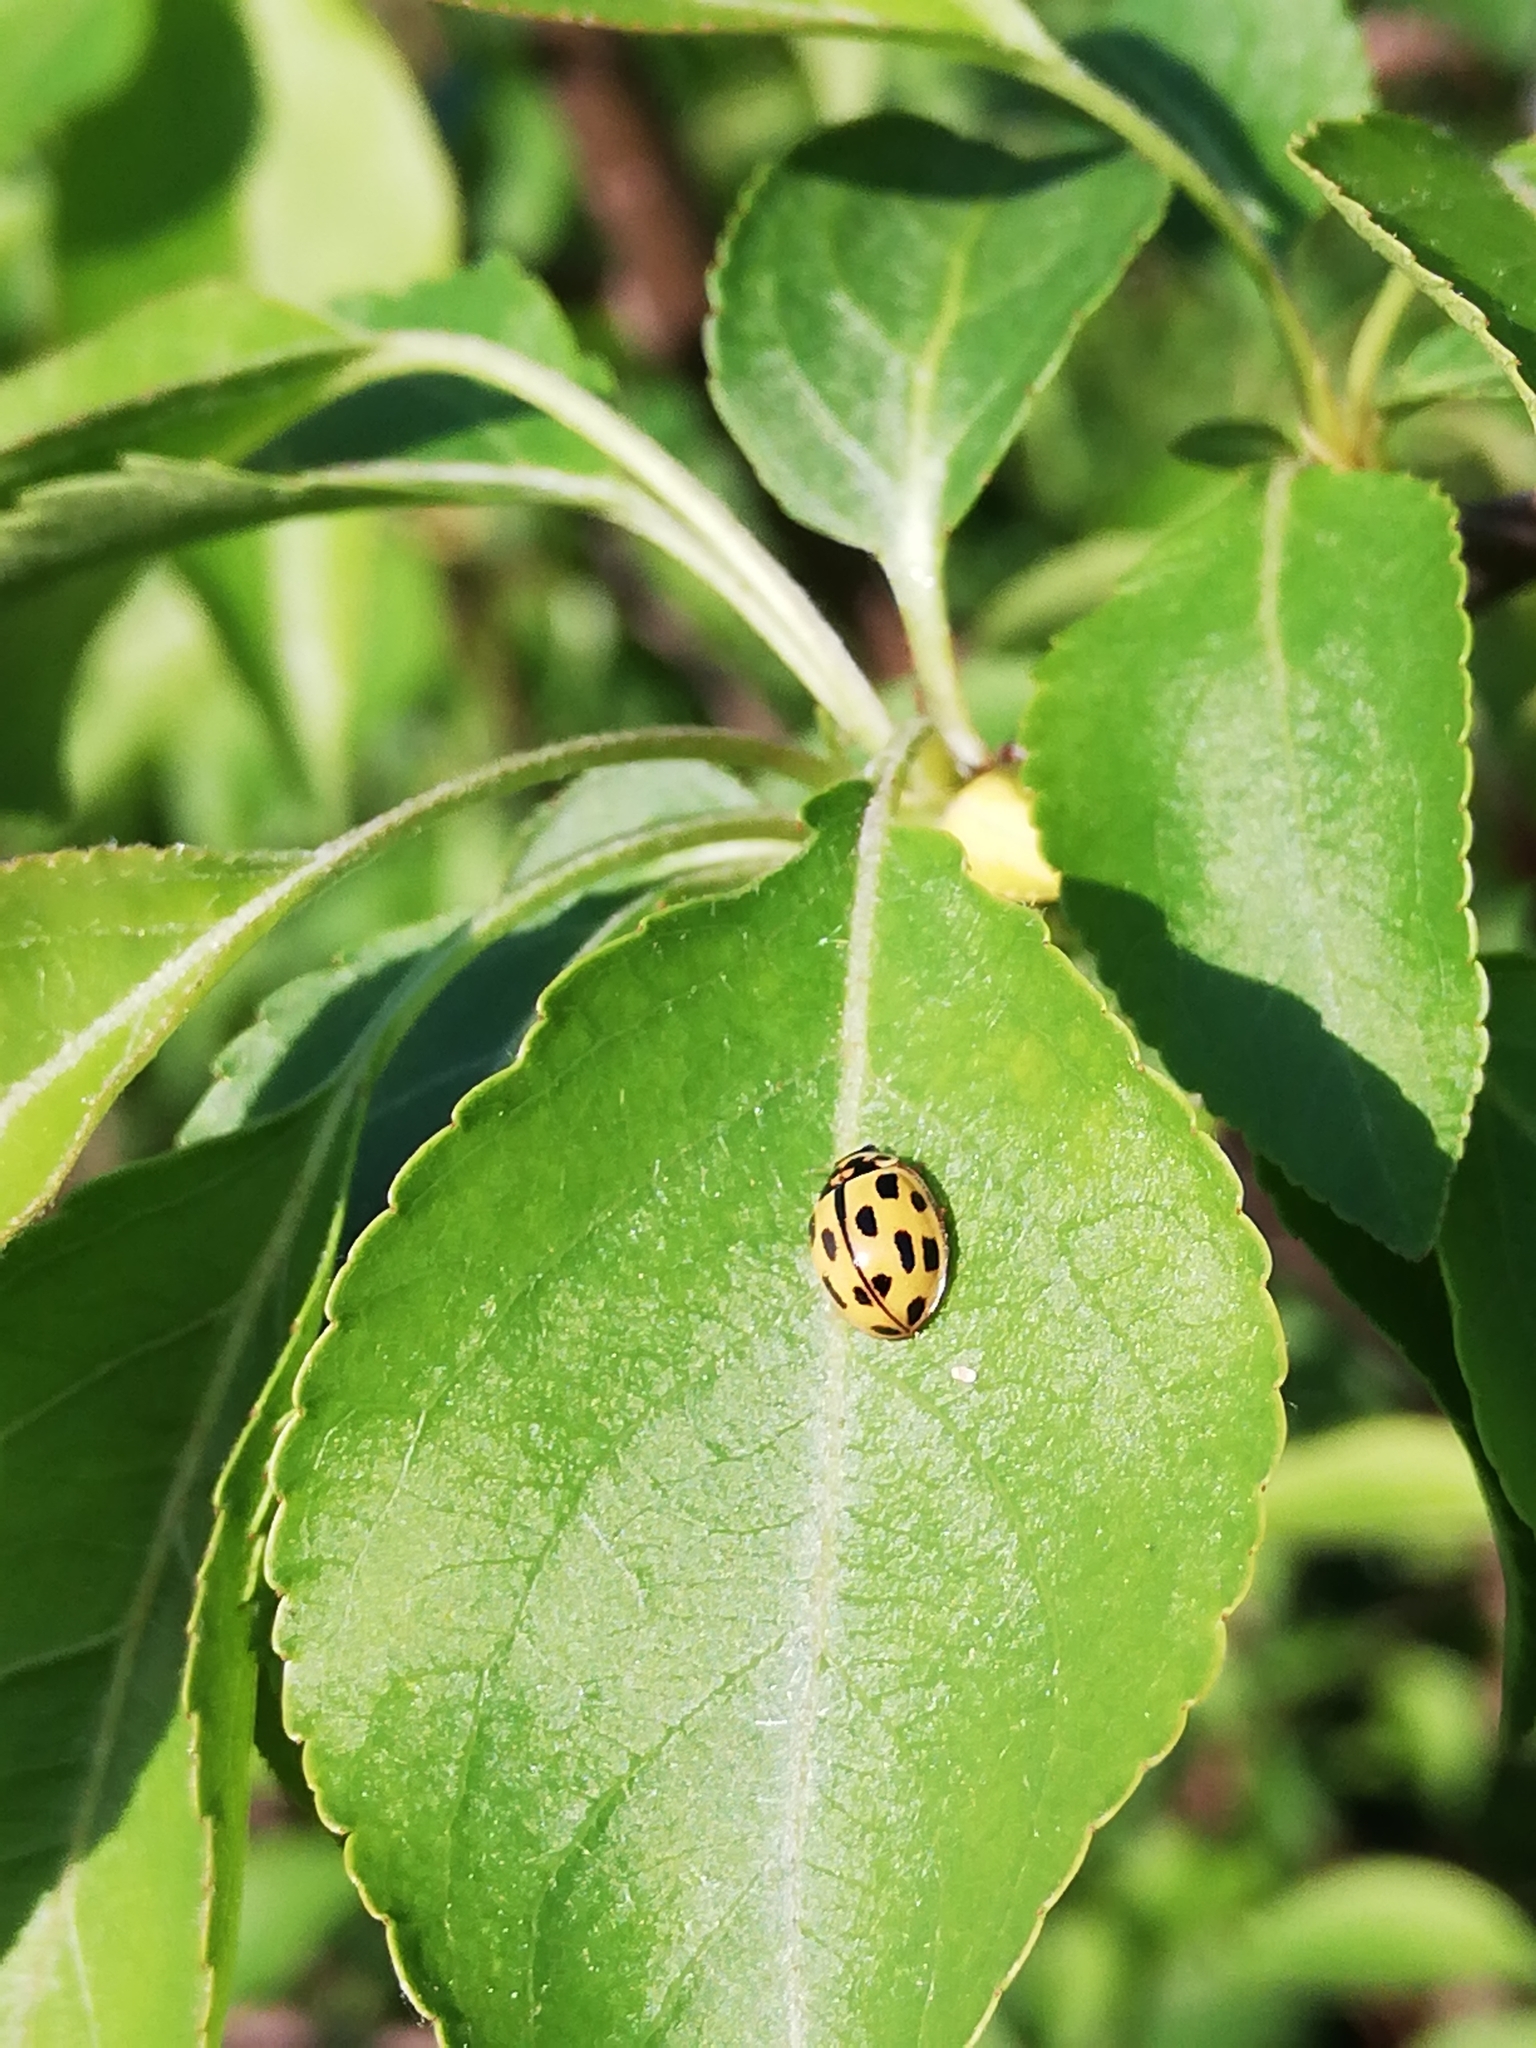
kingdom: Animalia
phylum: Arthropoda
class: Insecta
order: Coleoptera
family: Coccinellidae
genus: Propylaea
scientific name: Propylaea quatuordecimpunctata
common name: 14-spotted ladybird beetle
